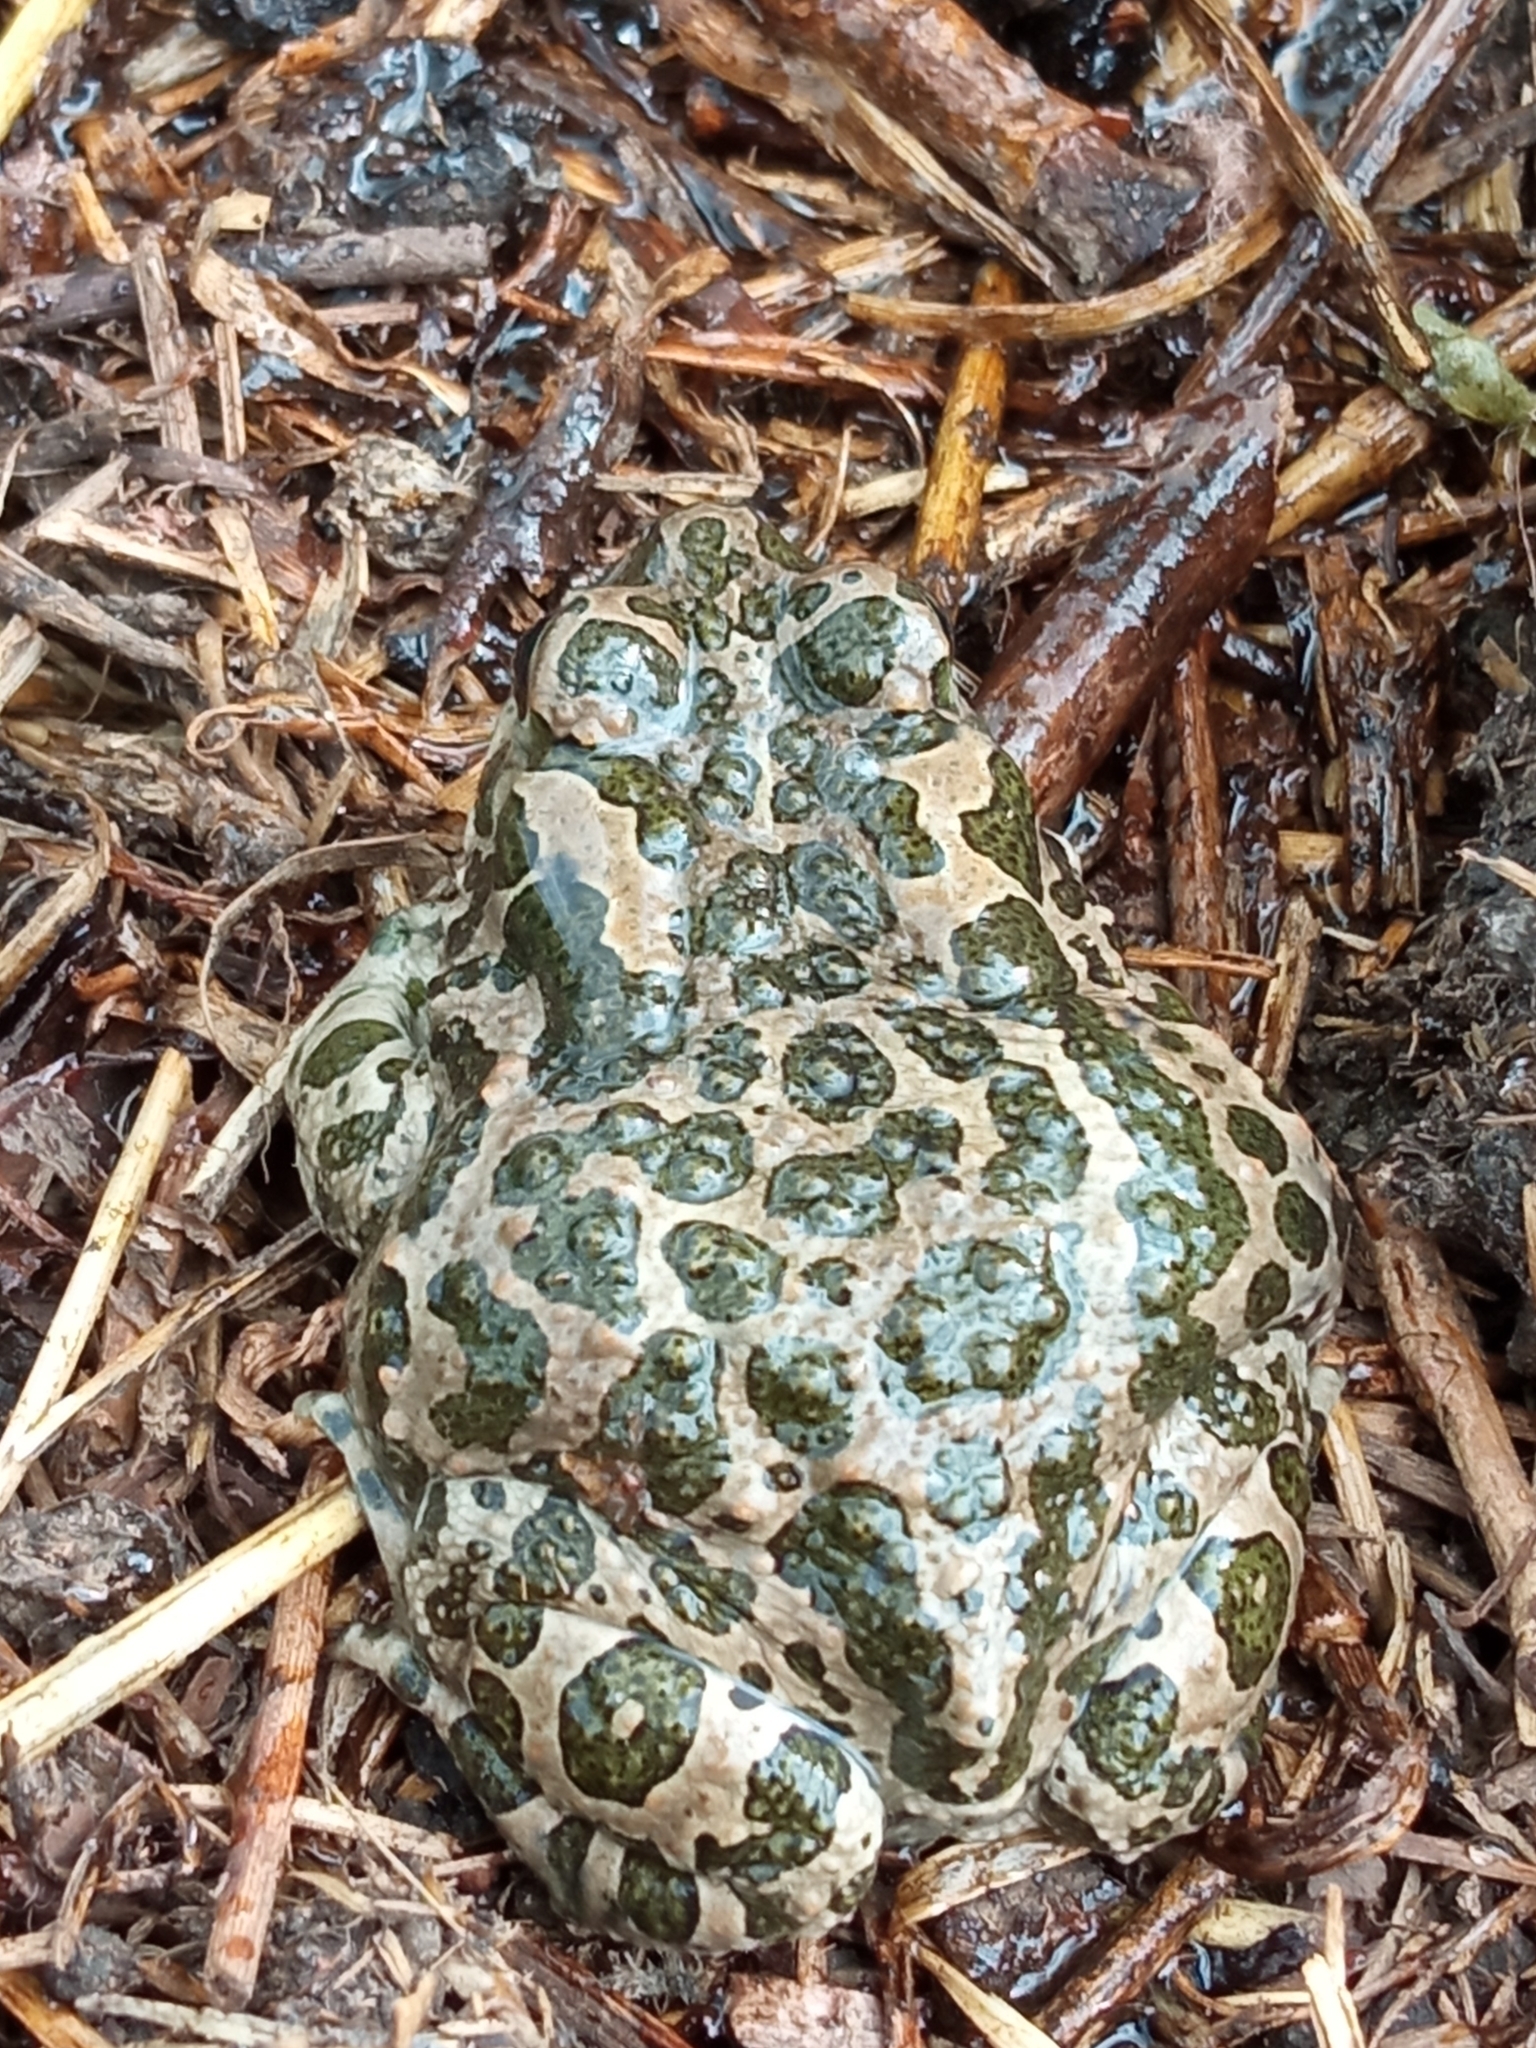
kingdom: Animalia
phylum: Chordata
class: Amphibia
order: Anura
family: Bufonidae
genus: Bufotes
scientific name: Bufotes viridis
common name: European green toad
